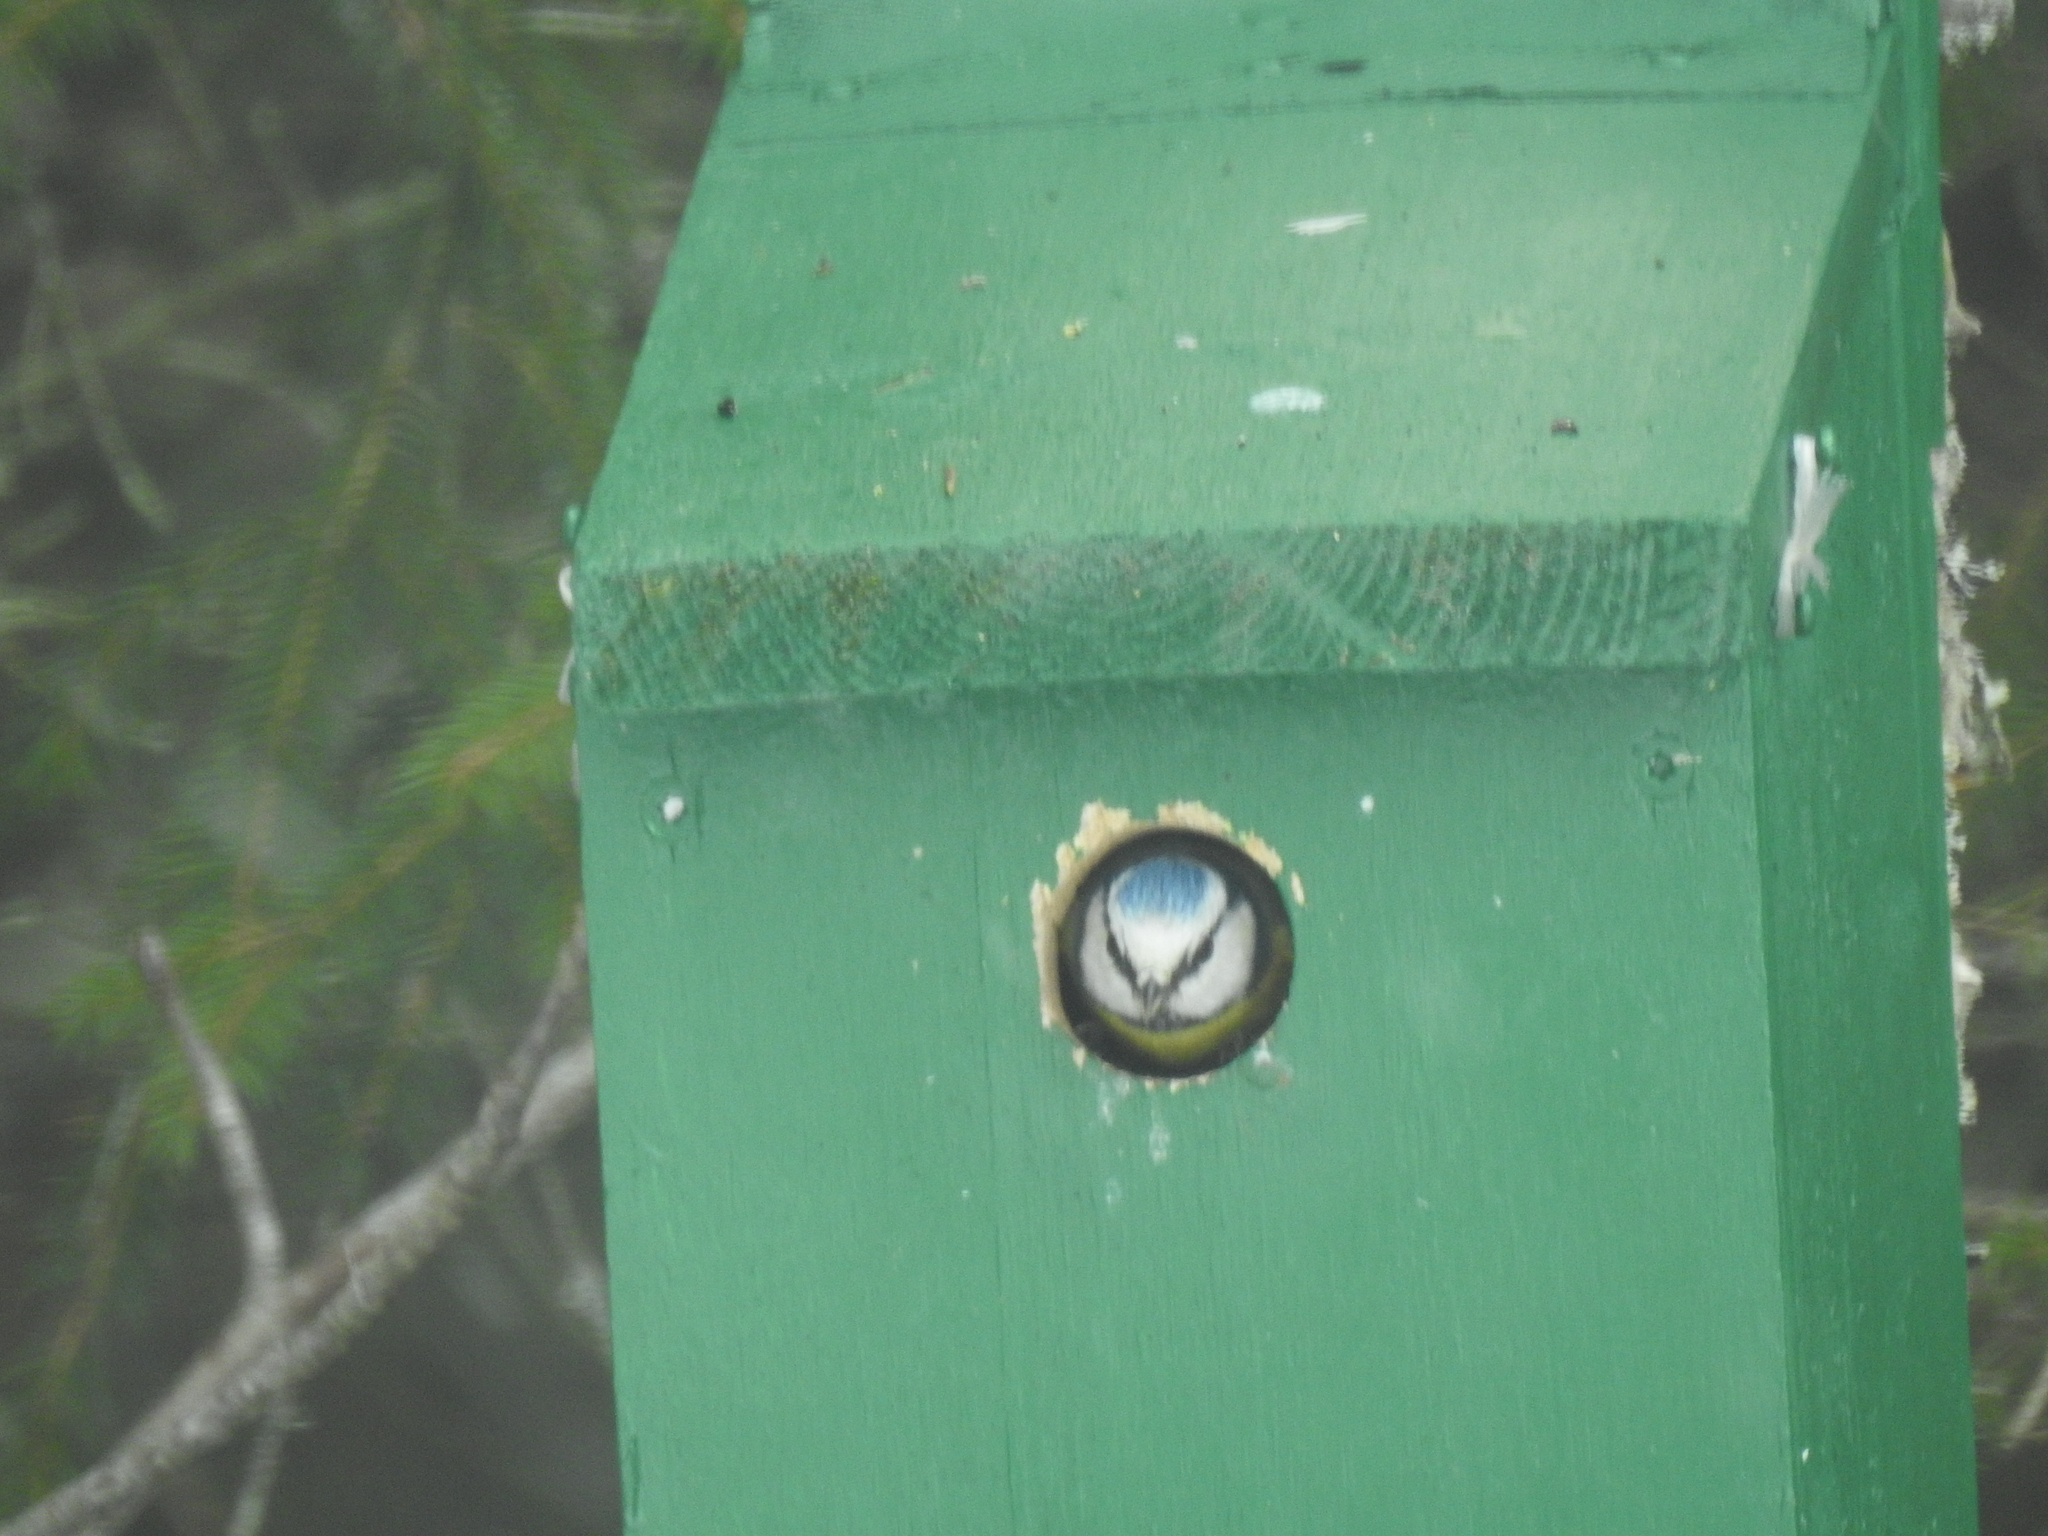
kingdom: Animalia
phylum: Chordata
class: Aves
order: Passeriformes
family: Paridae
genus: Cyanistes
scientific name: Cyanistes caeruleus
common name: Eurasian blue tit
